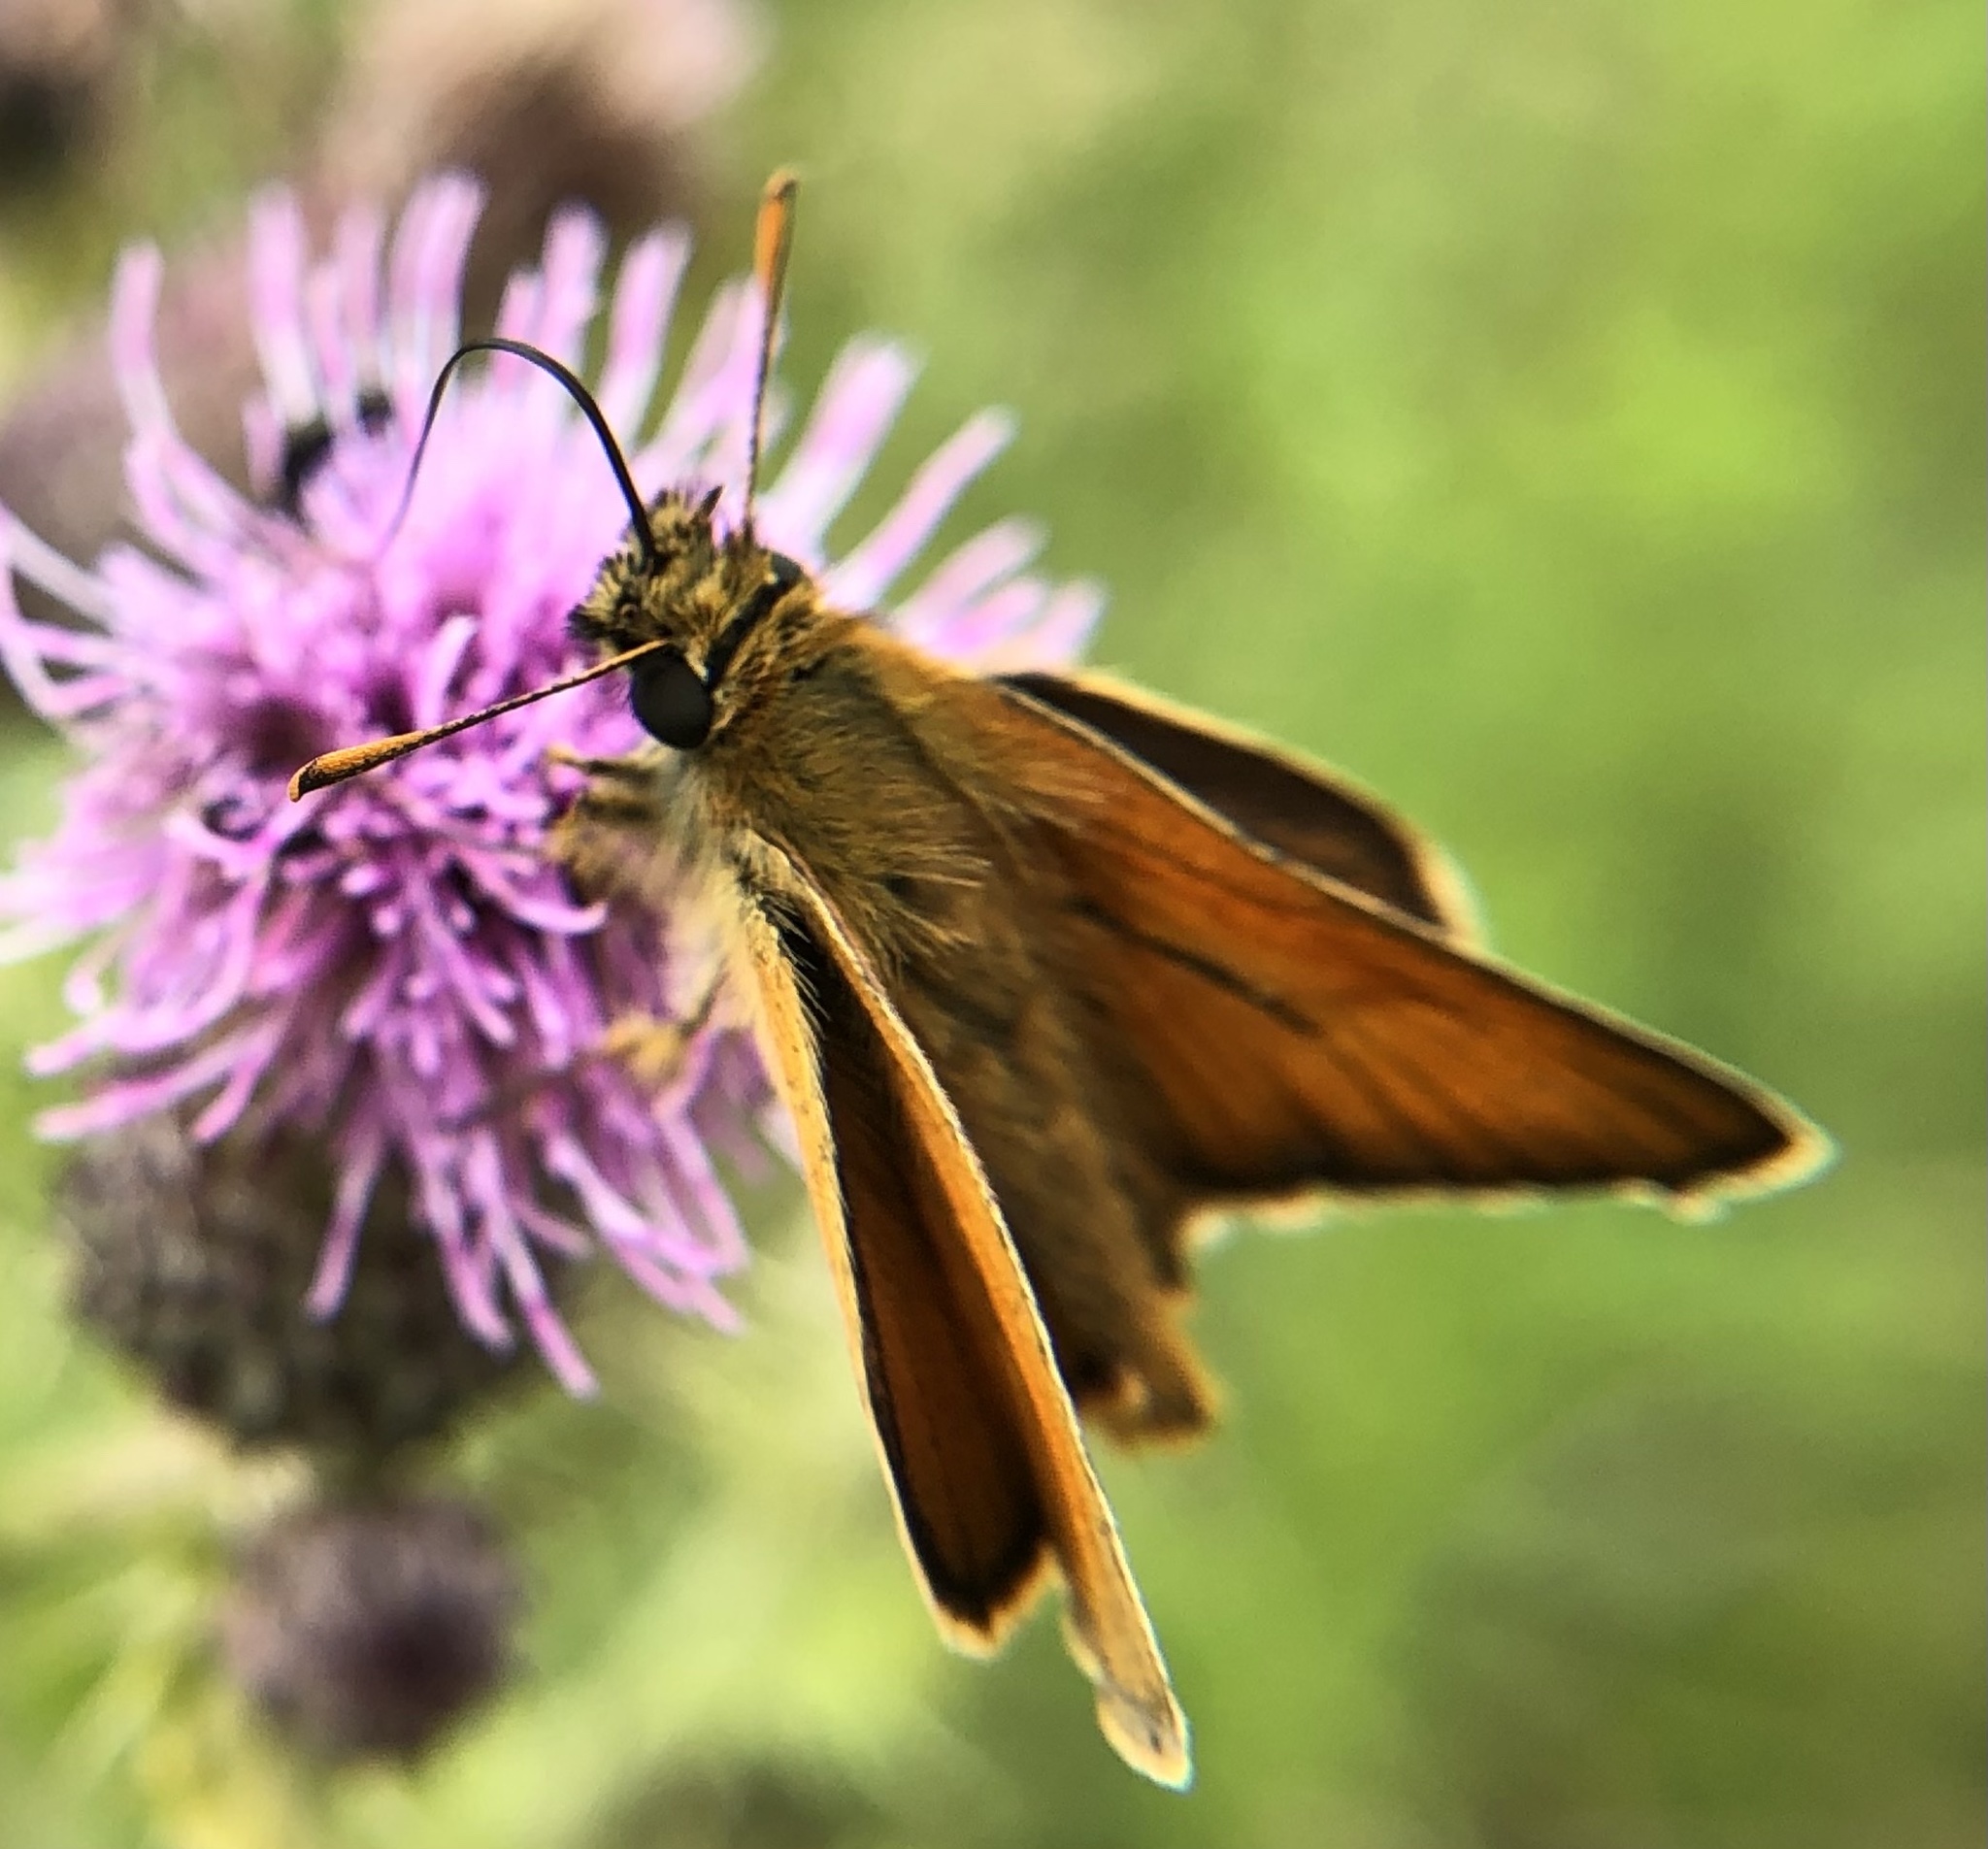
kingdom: Animalia
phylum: Arthropoda
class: Insecta
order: Lepidoptera
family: Hesperiidae
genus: Thymelicus
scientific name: Thymelicus sylvestris
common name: Small skipper
